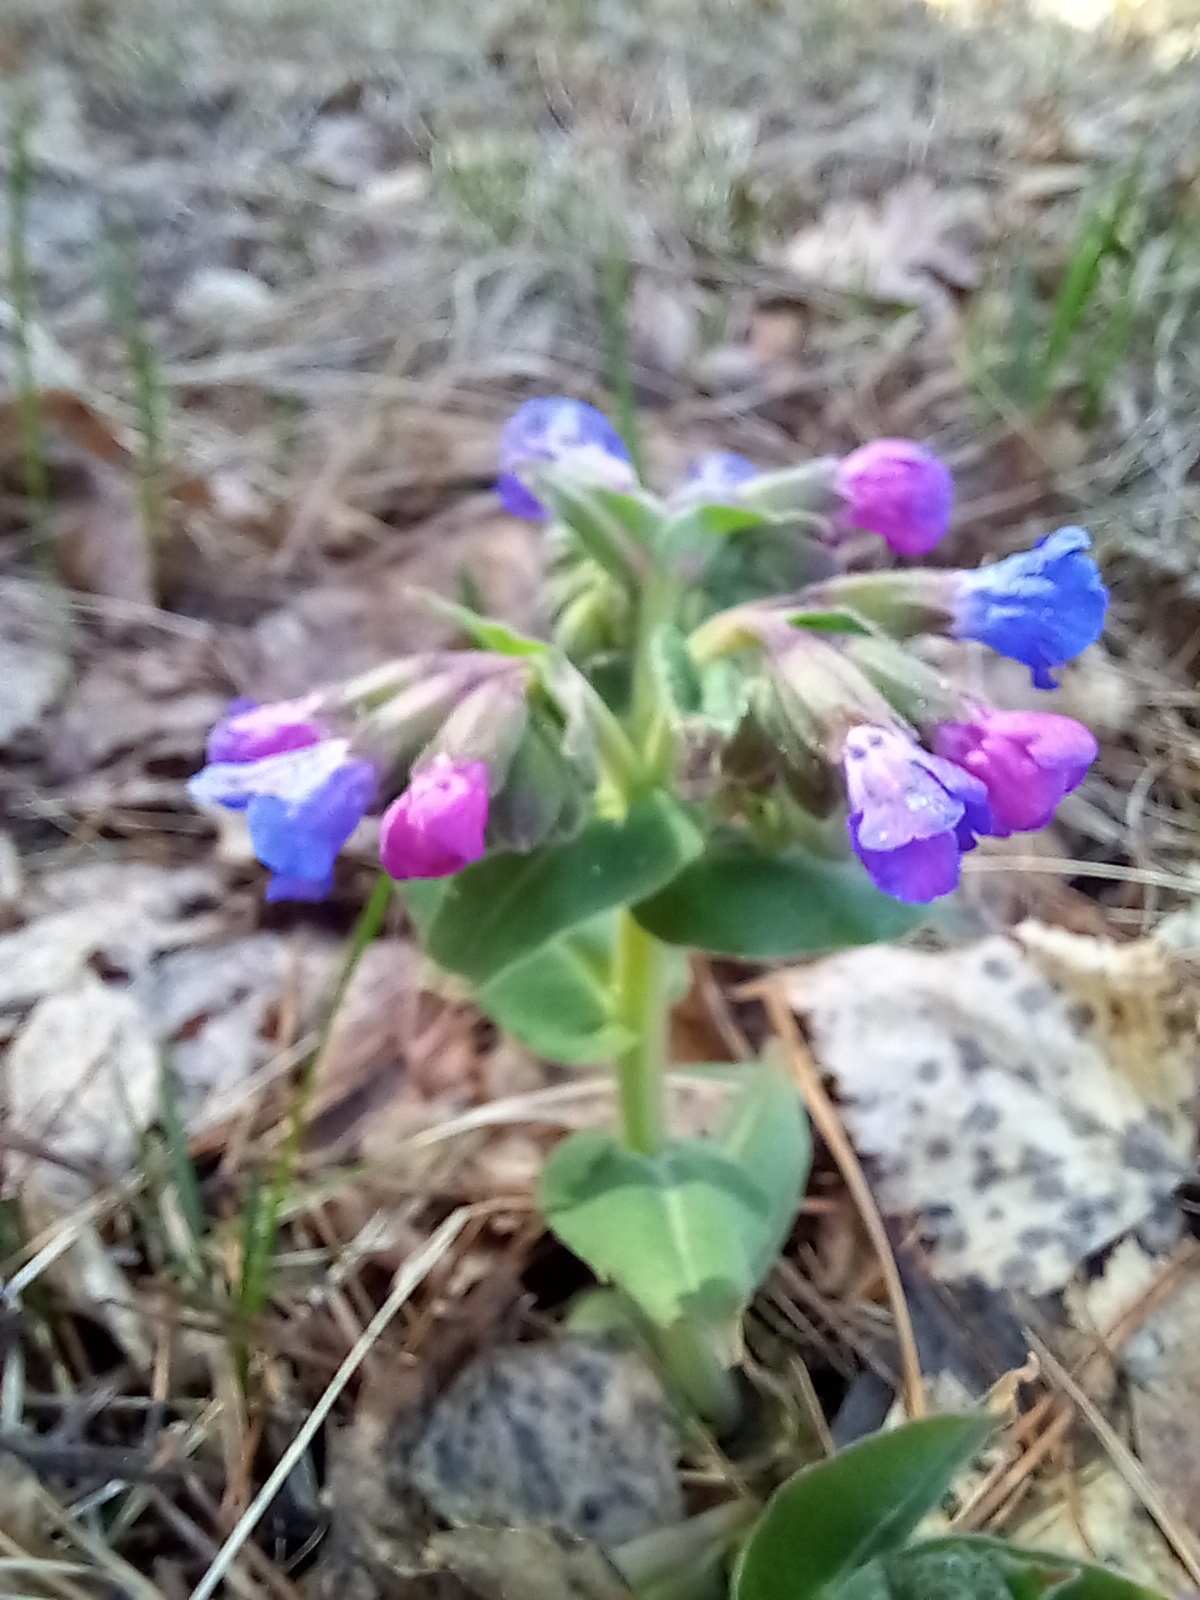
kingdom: Plantae
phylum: Tracheophyta
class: Magnoliopsida
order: Boraginales
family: Boraginaceae
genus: Pulmonaria
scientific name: Pulmonaria mollis
